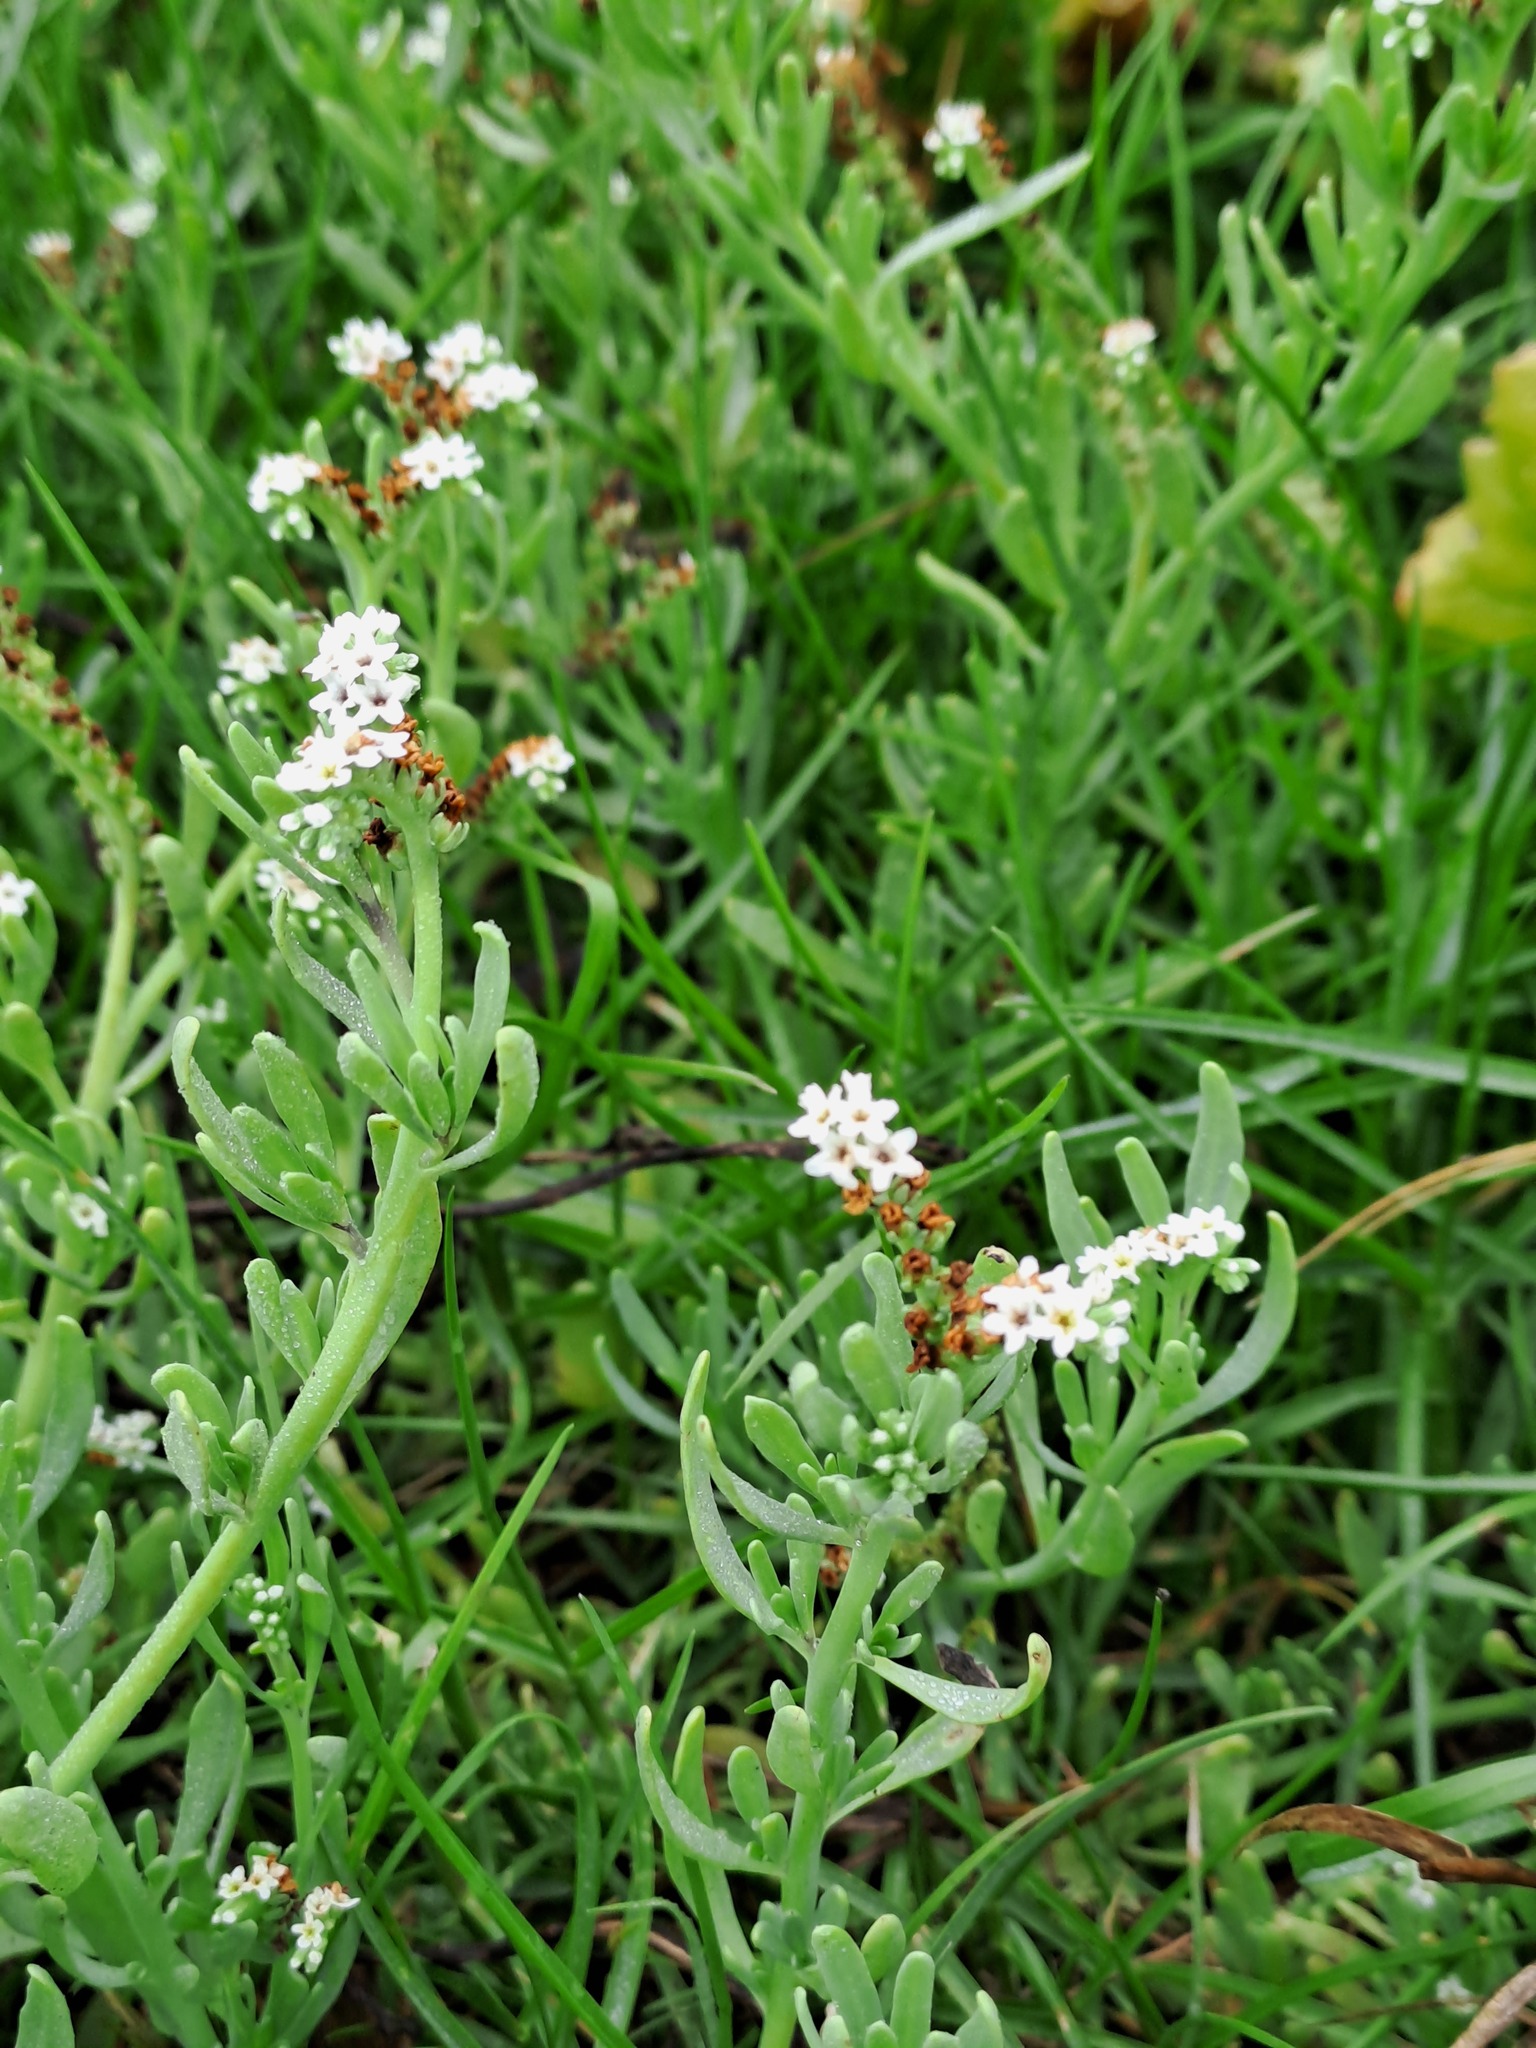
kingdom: Plantae
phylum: Tracheophyta
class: Magnoliopsida
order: Boraginales
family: Heliotropiaceae
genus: Heliotropium
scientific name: Heliotropium curassavicum
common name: Seaside heliotrope
